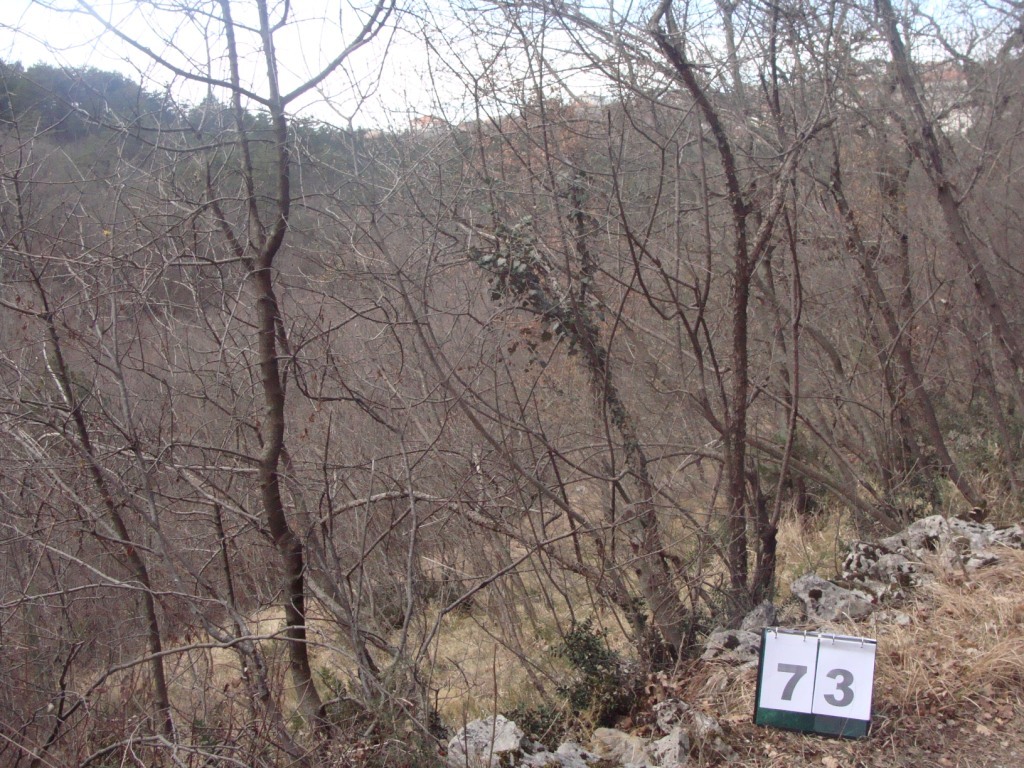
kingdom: Plantae
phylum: Tracheophyta
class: Magnoliopsida
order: Cornales
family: Cornaceae
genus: Cornus
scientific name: Cornus mas
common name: Cornelian-cherry
